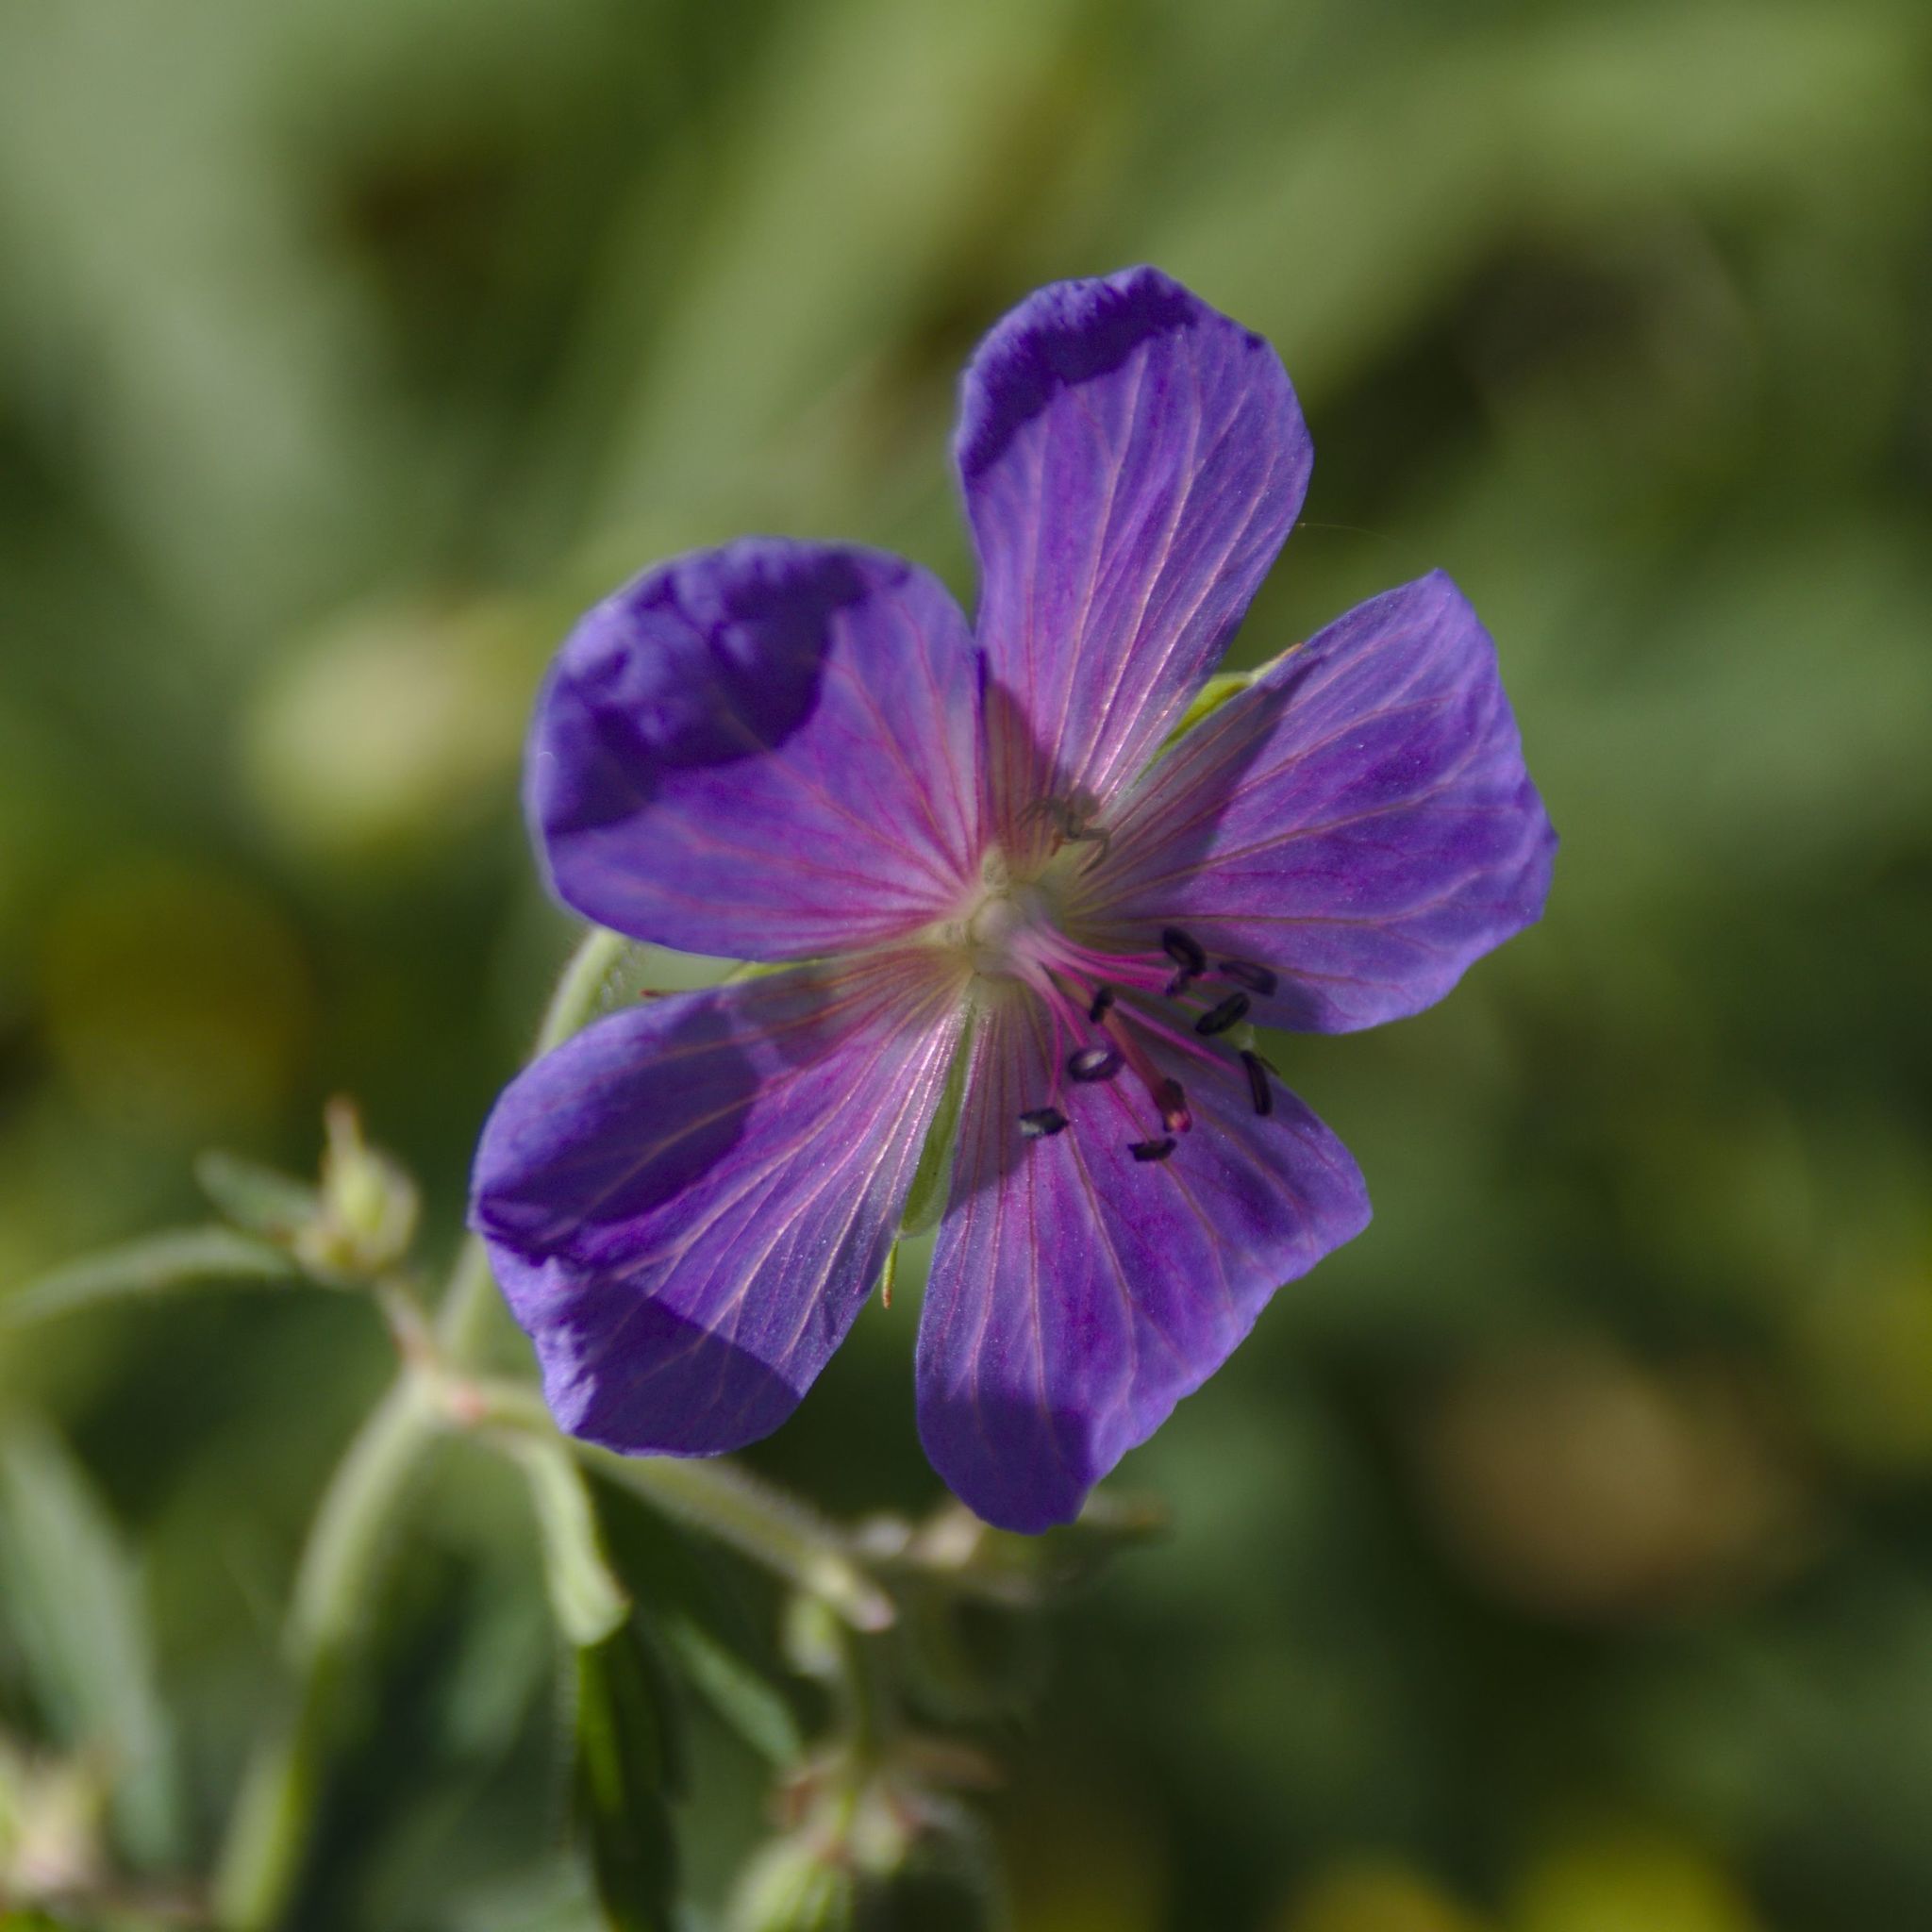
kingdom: Plantae
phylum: Tracheophyta
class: Magnoliopsida
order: Geraniales
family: Geraniaceae
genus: Geranium
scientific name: Geranium pratense
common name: Meadow crane's-bill
